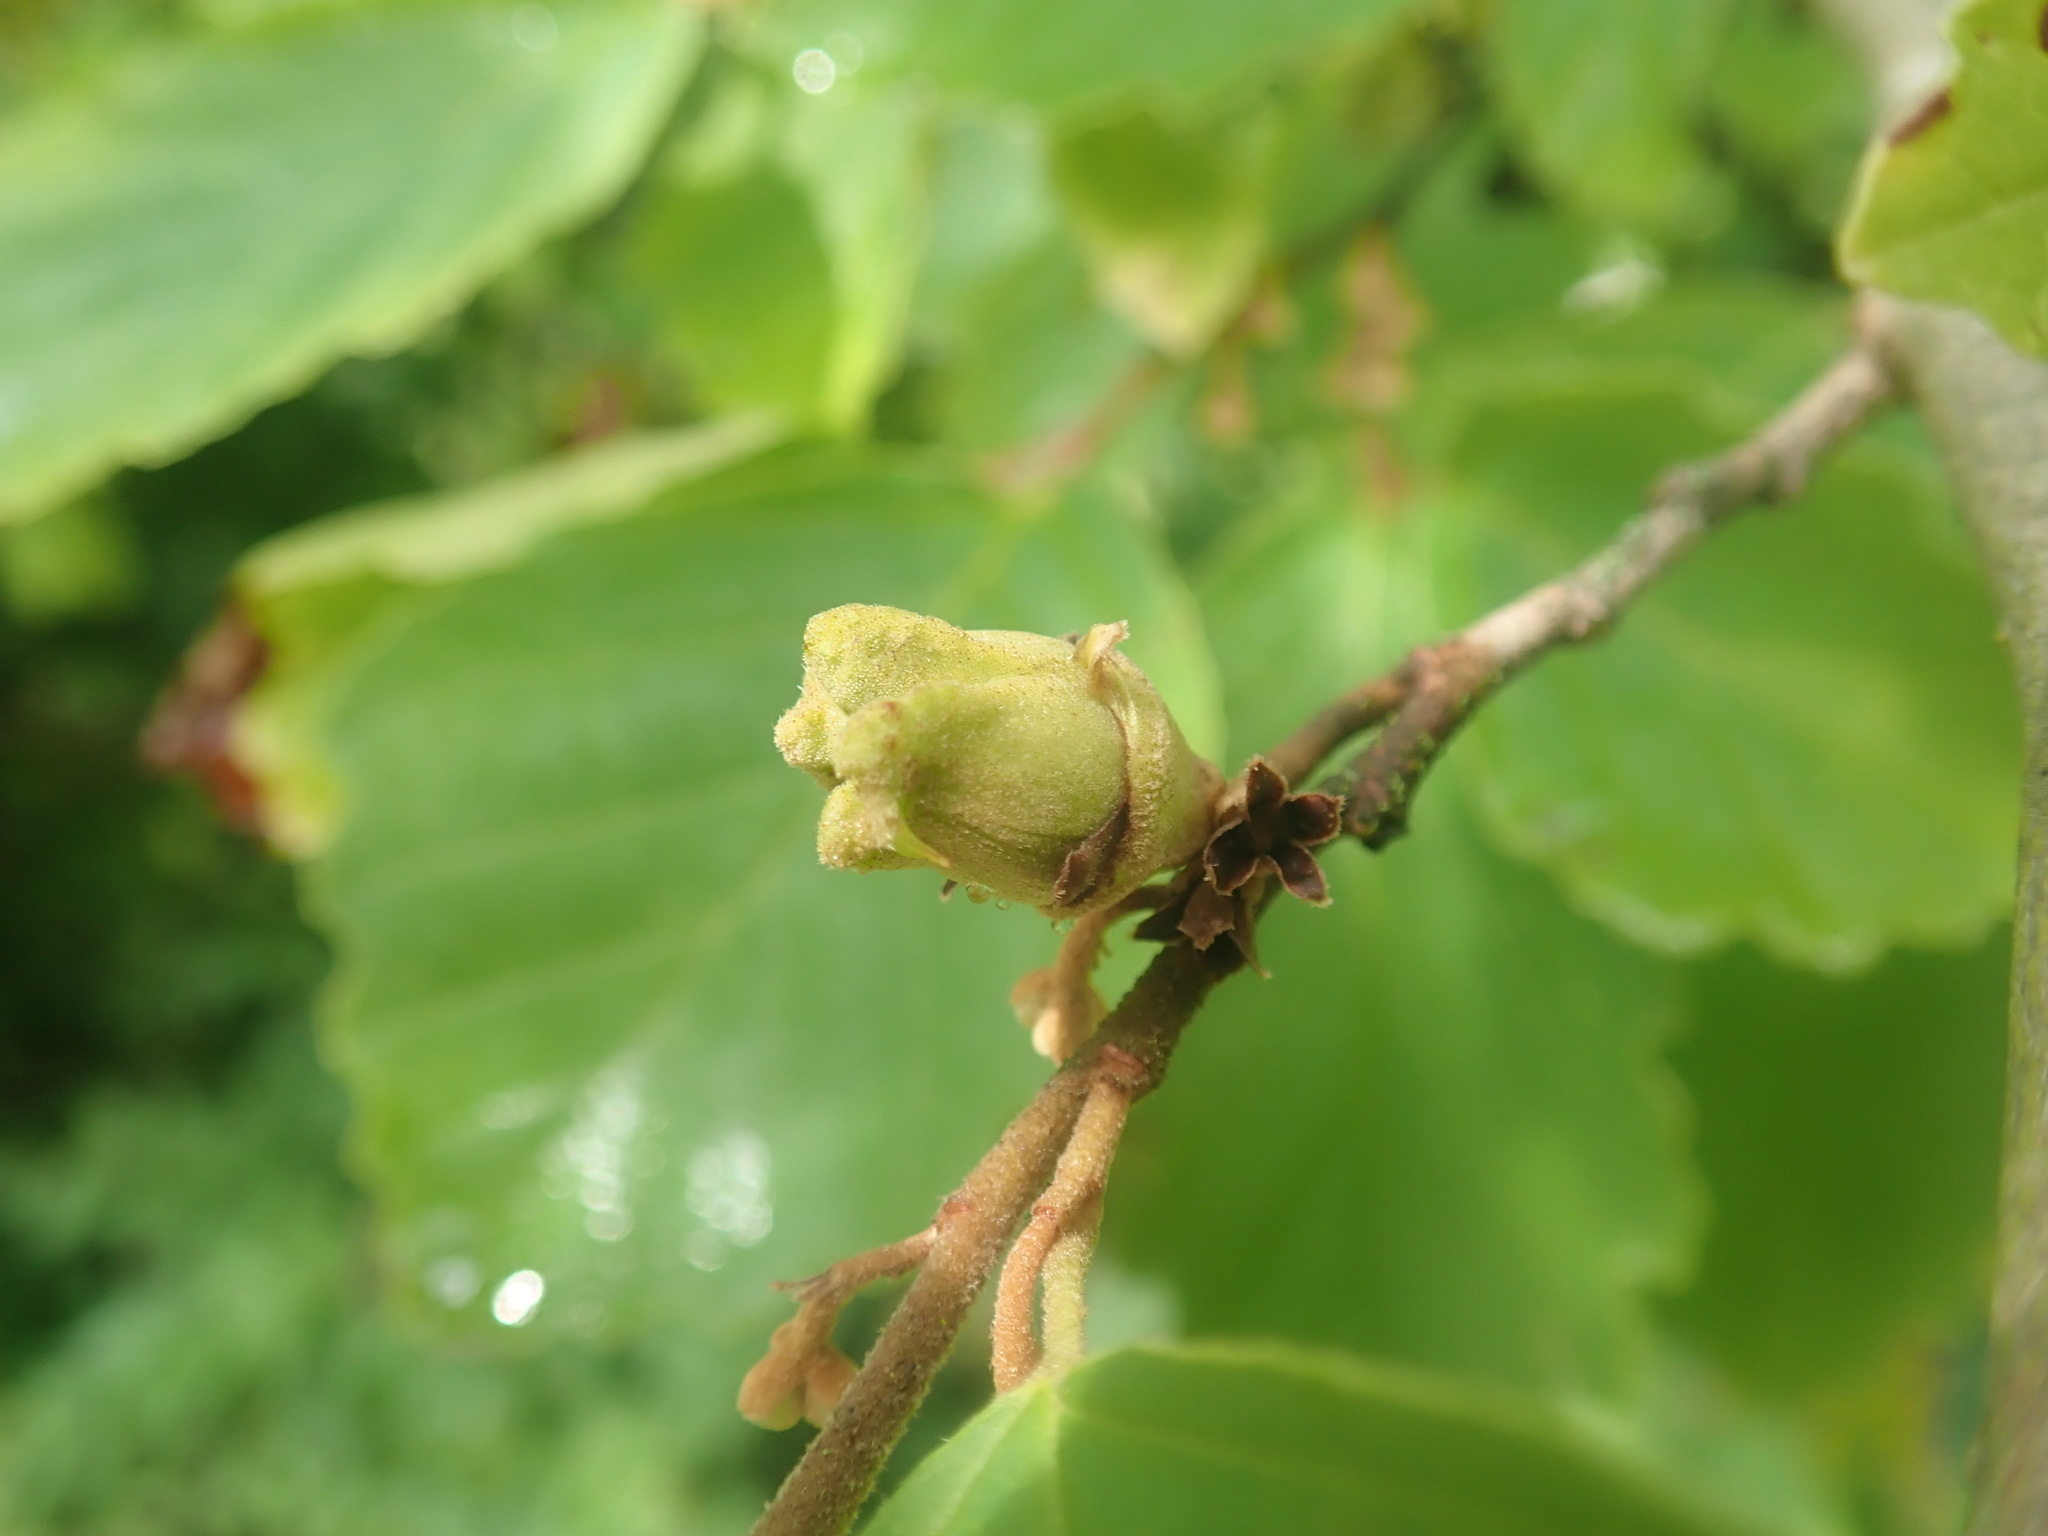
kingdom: Plantae
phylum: Tracheophyta
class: Magnoliopsida
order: Saxifragales
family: Hamamelidaceae
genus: Hamamelis
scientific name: Hamamelis virginiana
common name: Witch-hazel
